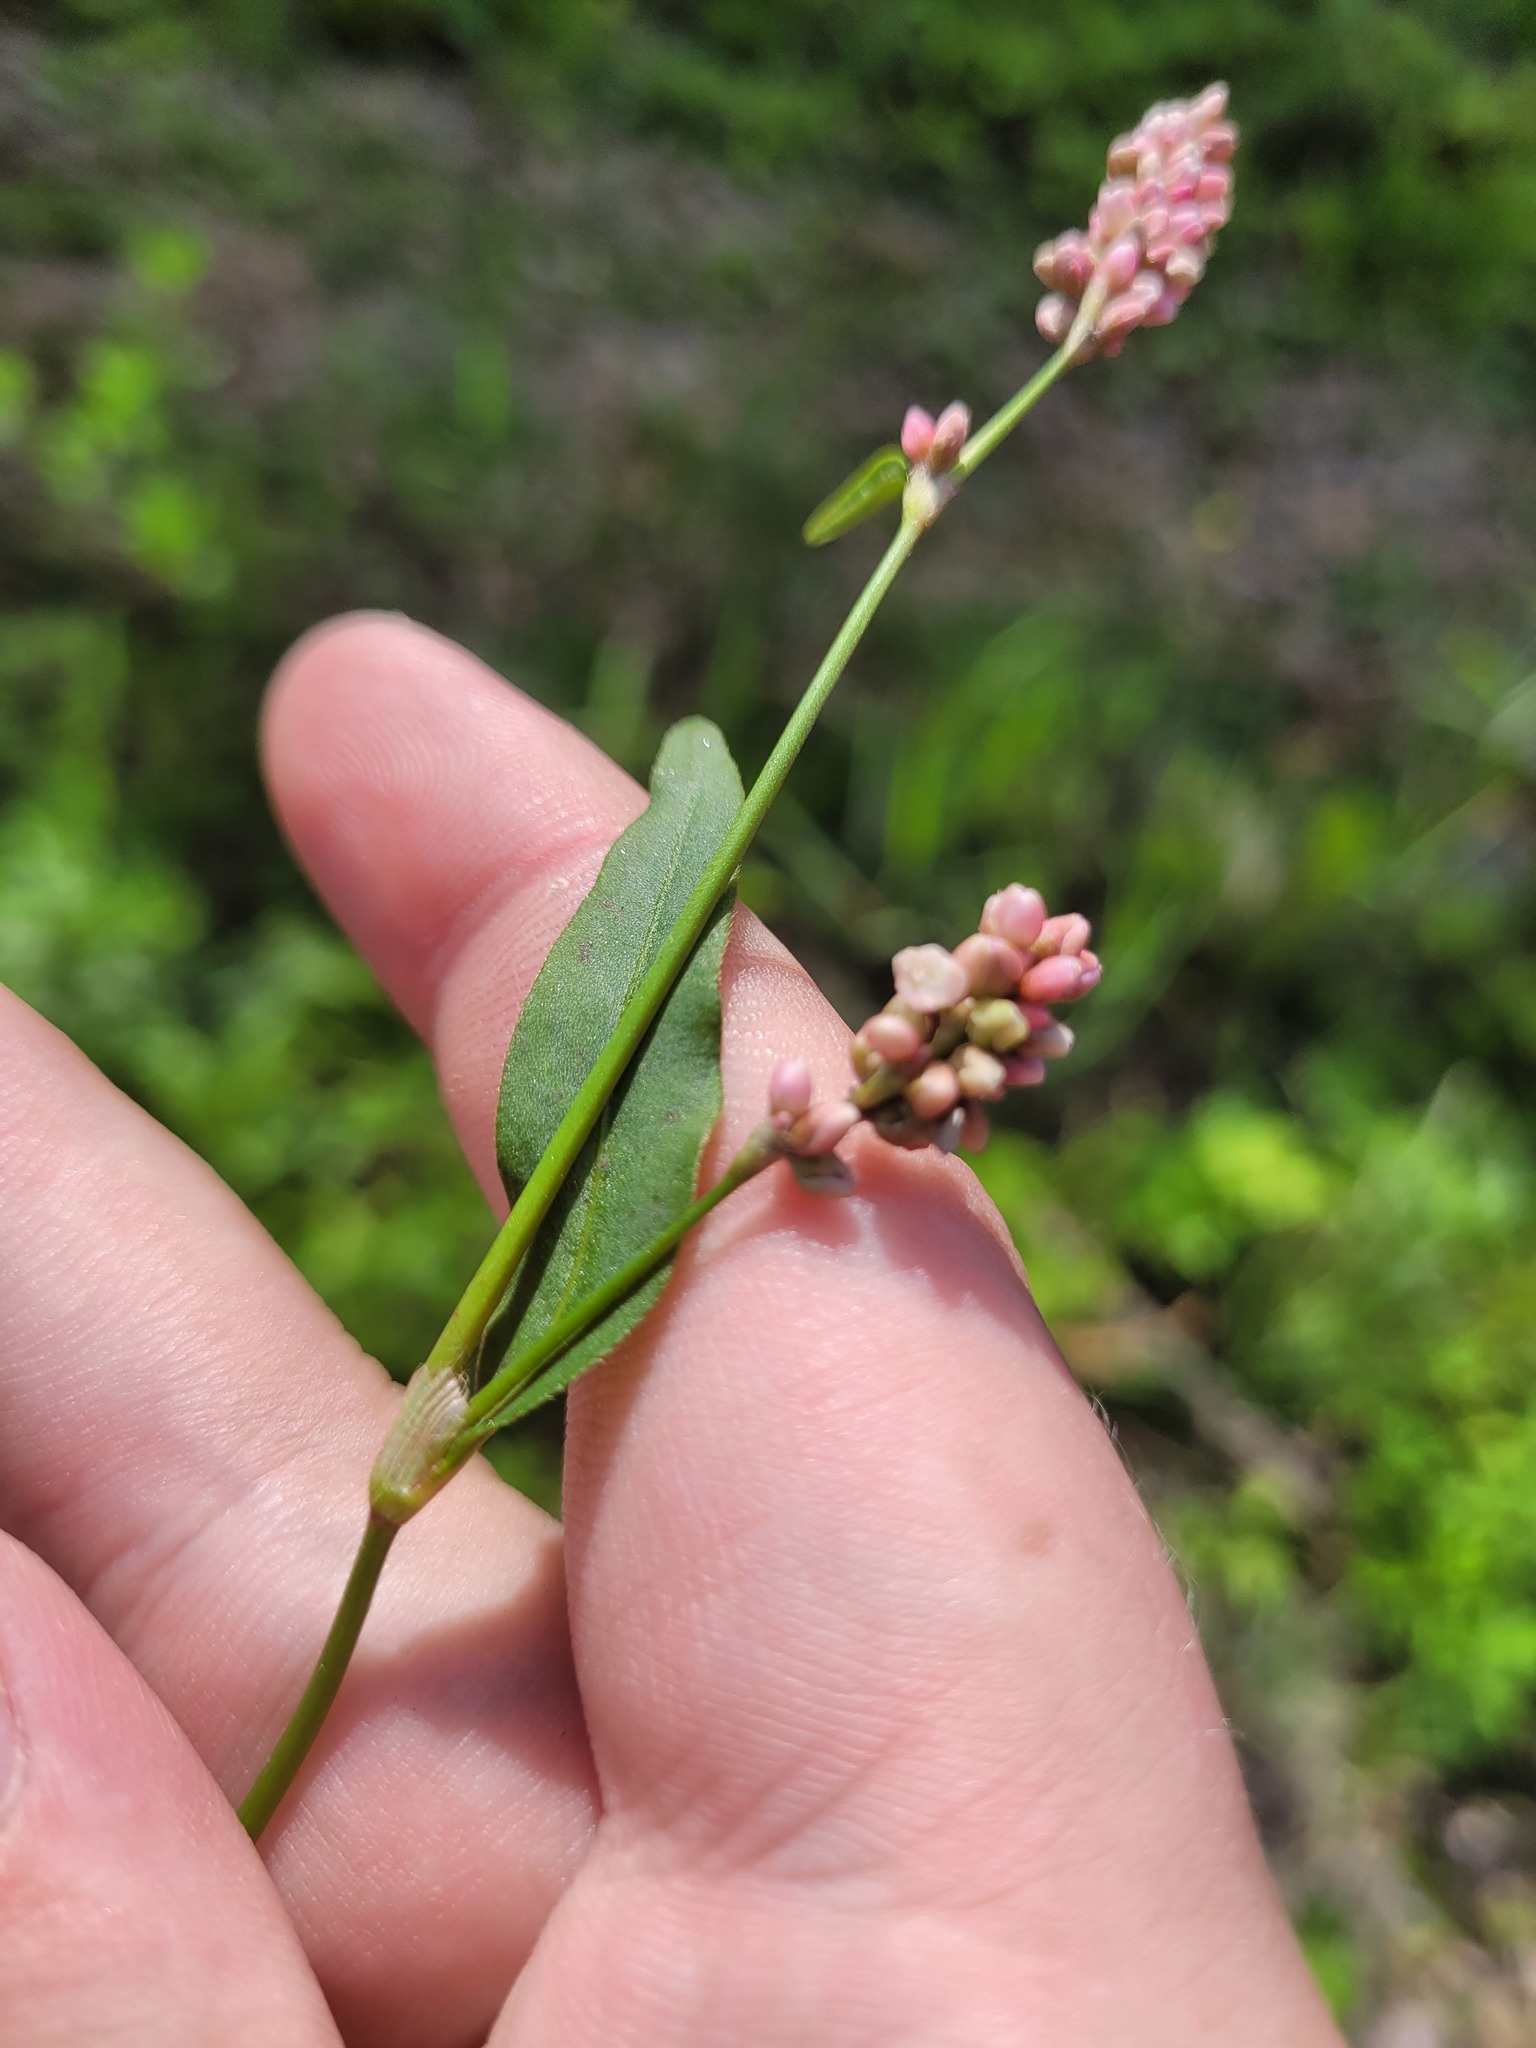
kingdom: Plantae
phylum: Tracheophyta
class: Magnoliopsida
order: Caryophyllales
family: Polygonaceae
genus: Persicaria
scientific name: Persicaria maculosa
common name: Redshank
